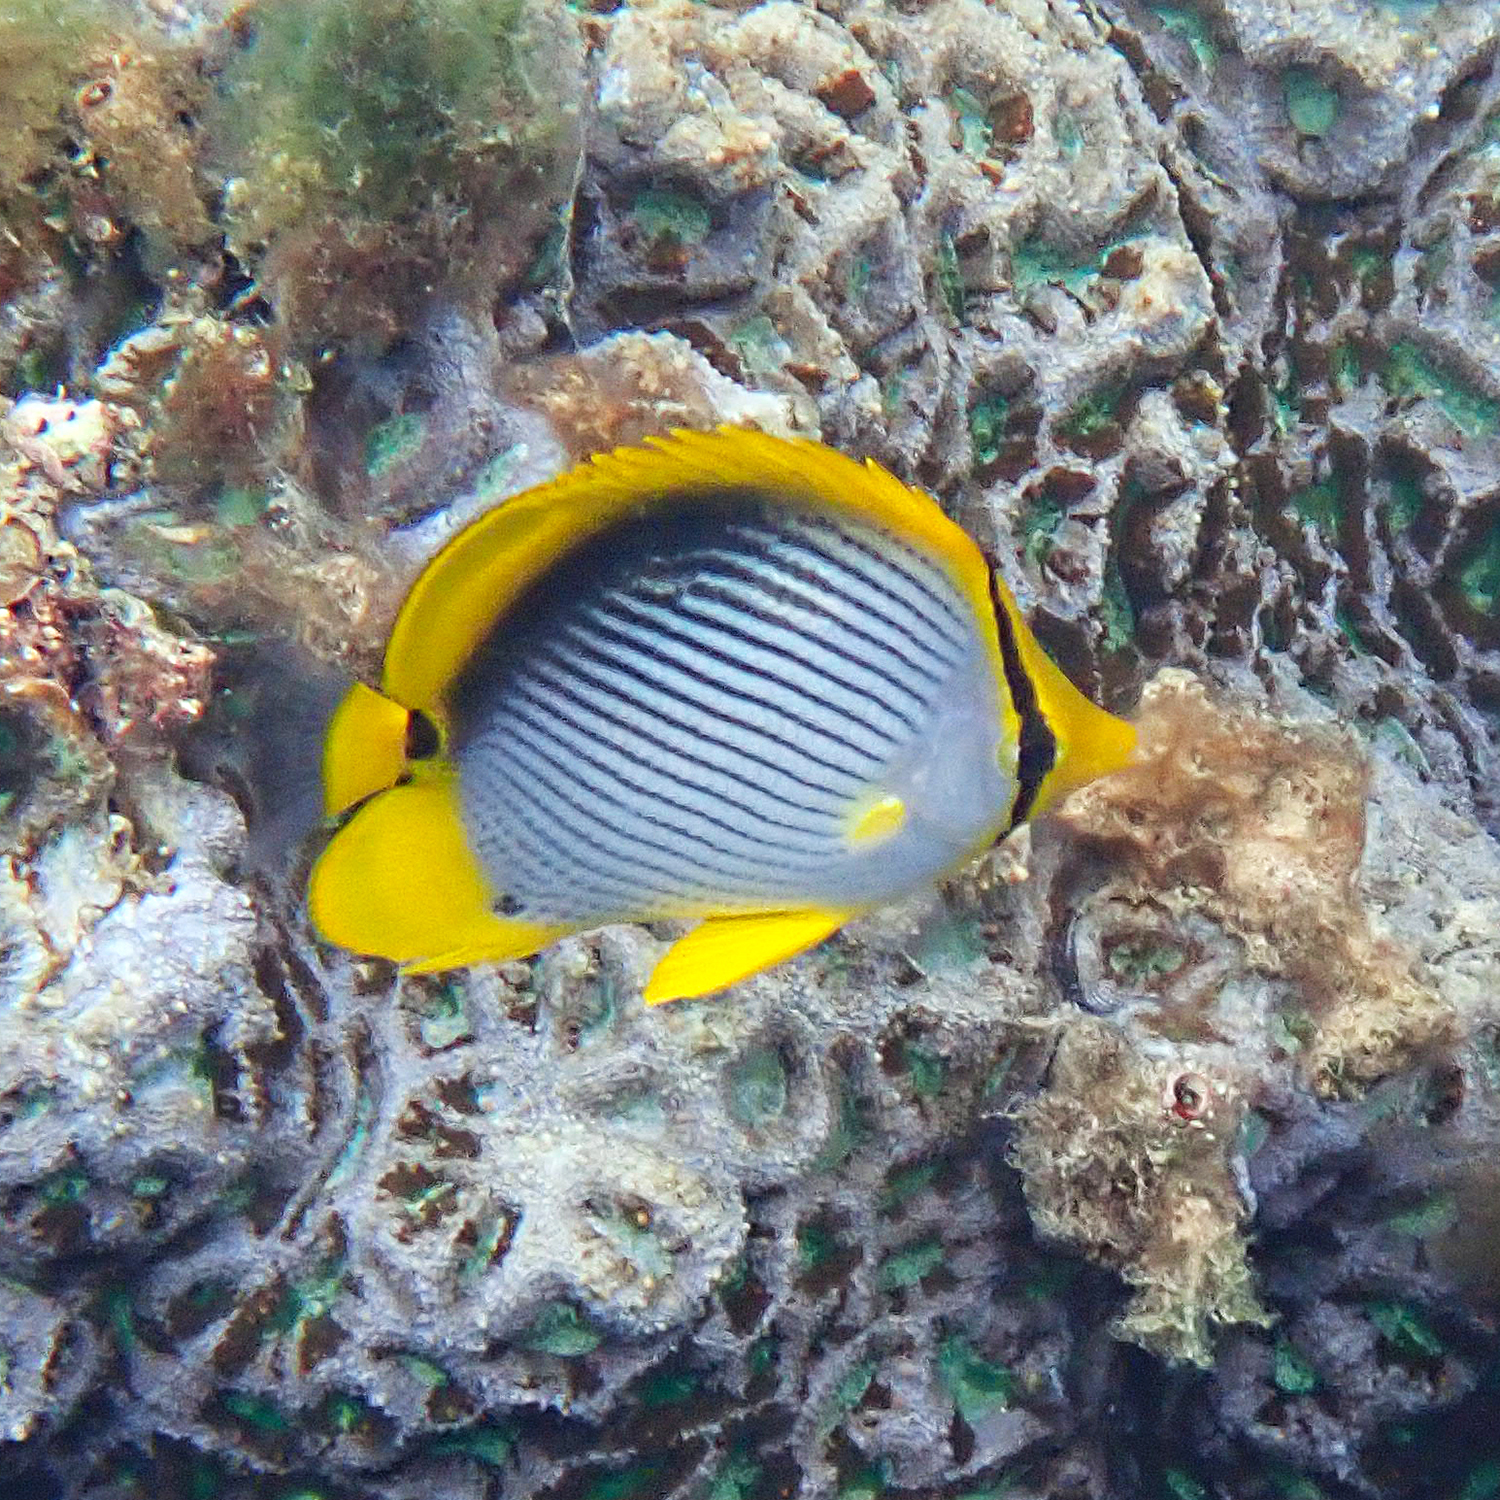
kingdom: Animalia
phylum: Chordata
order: Perciformes
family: Chaetodontidae
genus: Chaetodon
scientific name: Chaetodon melannotus
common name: Blackback butterflyfish
